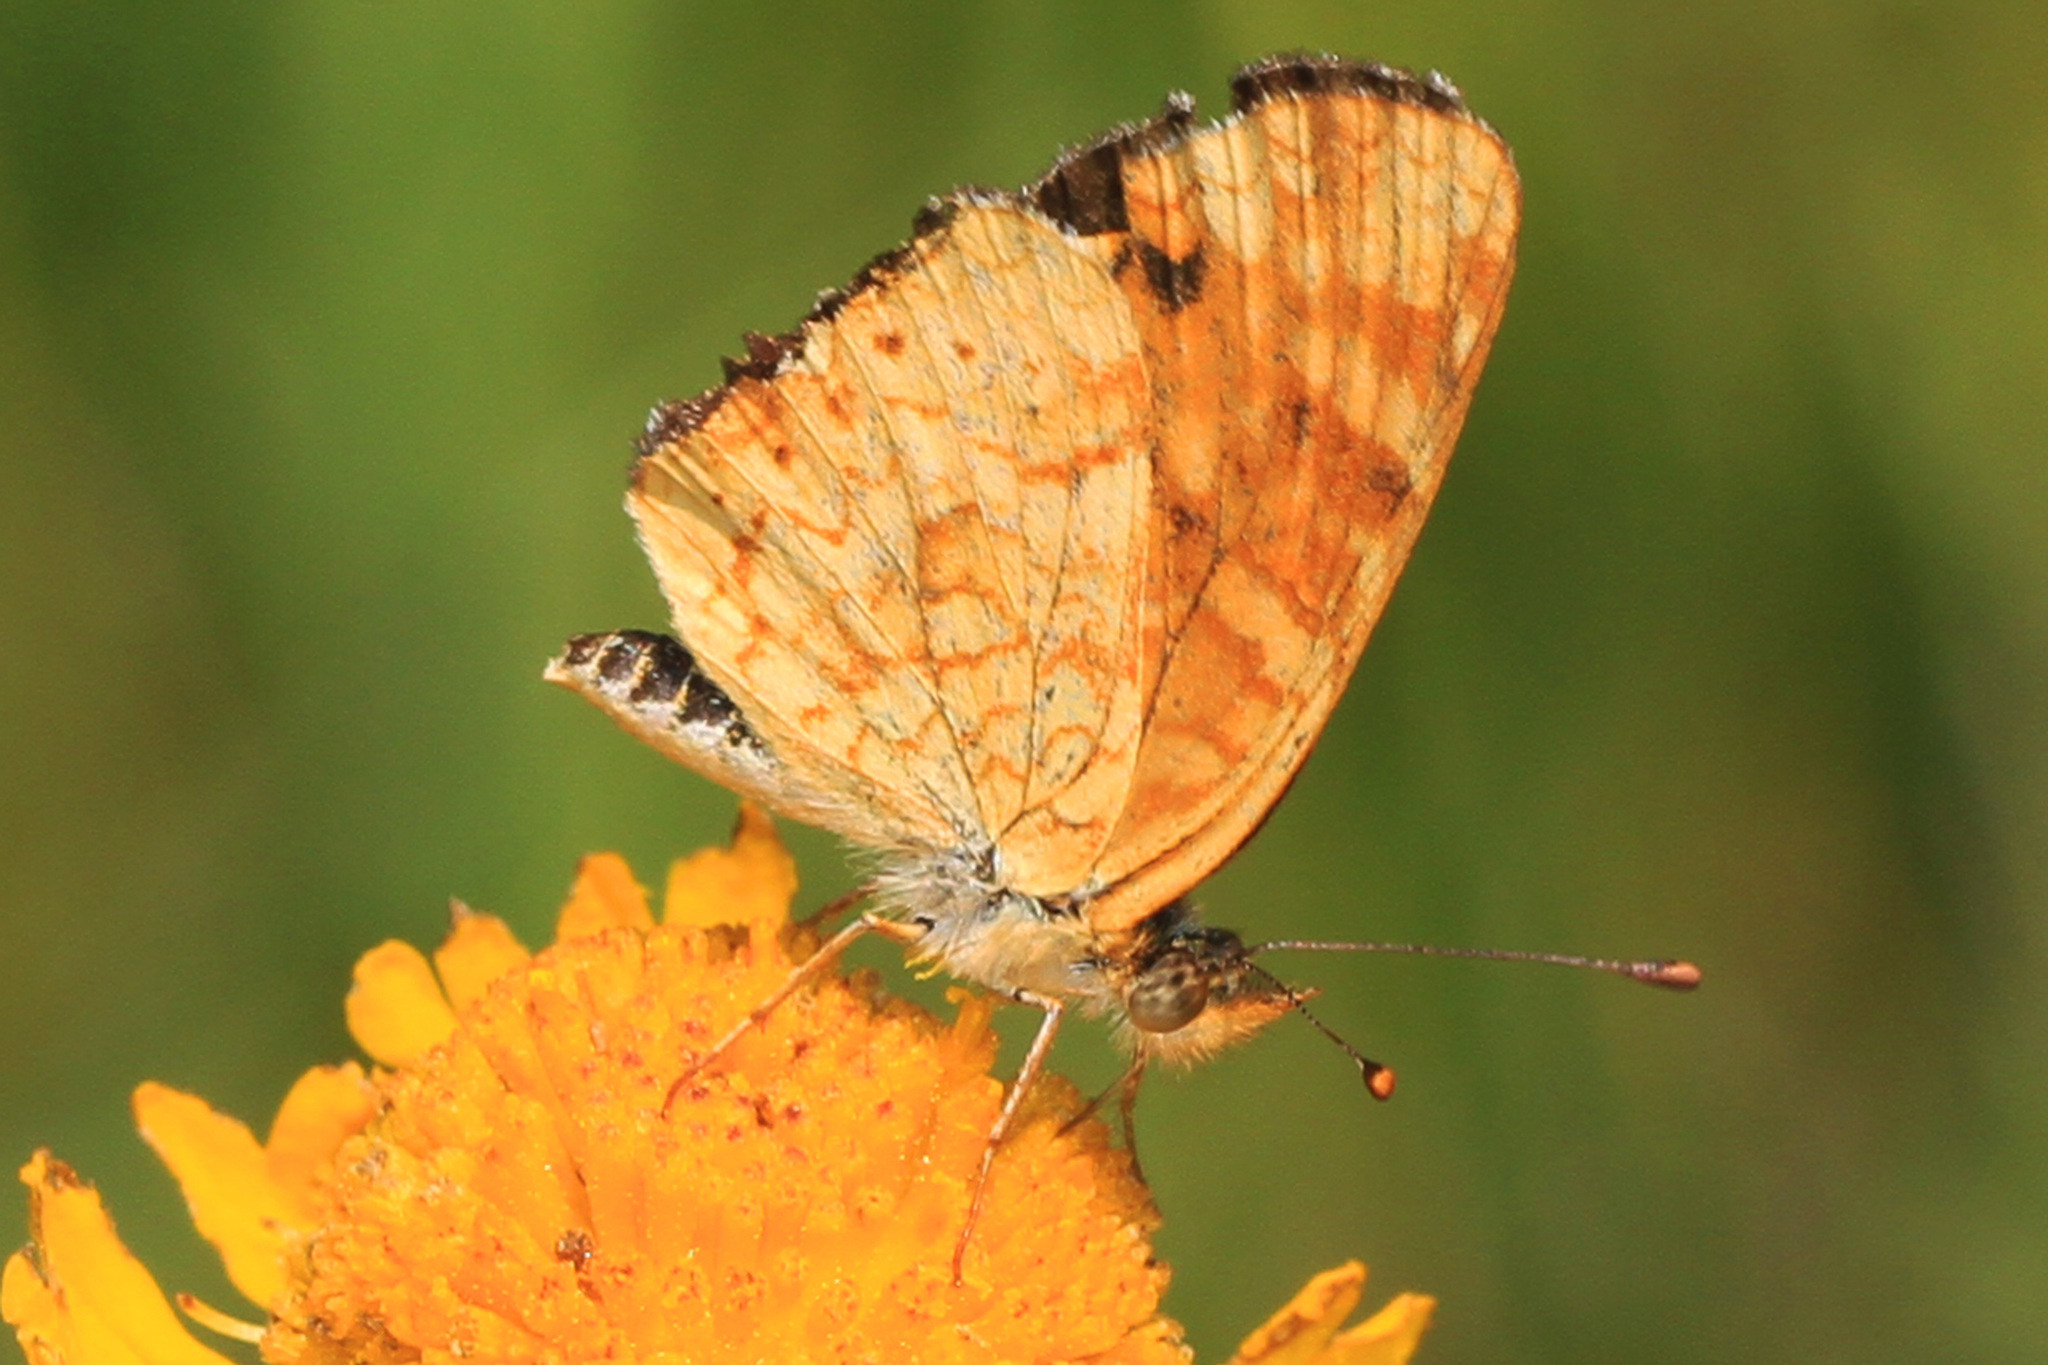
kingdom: Animalia
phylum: Arthropoda
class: Insecta
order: Lepidoptera
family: Nymphalidae
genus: Phyciodes
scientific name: Phyciodes tharos
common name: Pearl crescent
